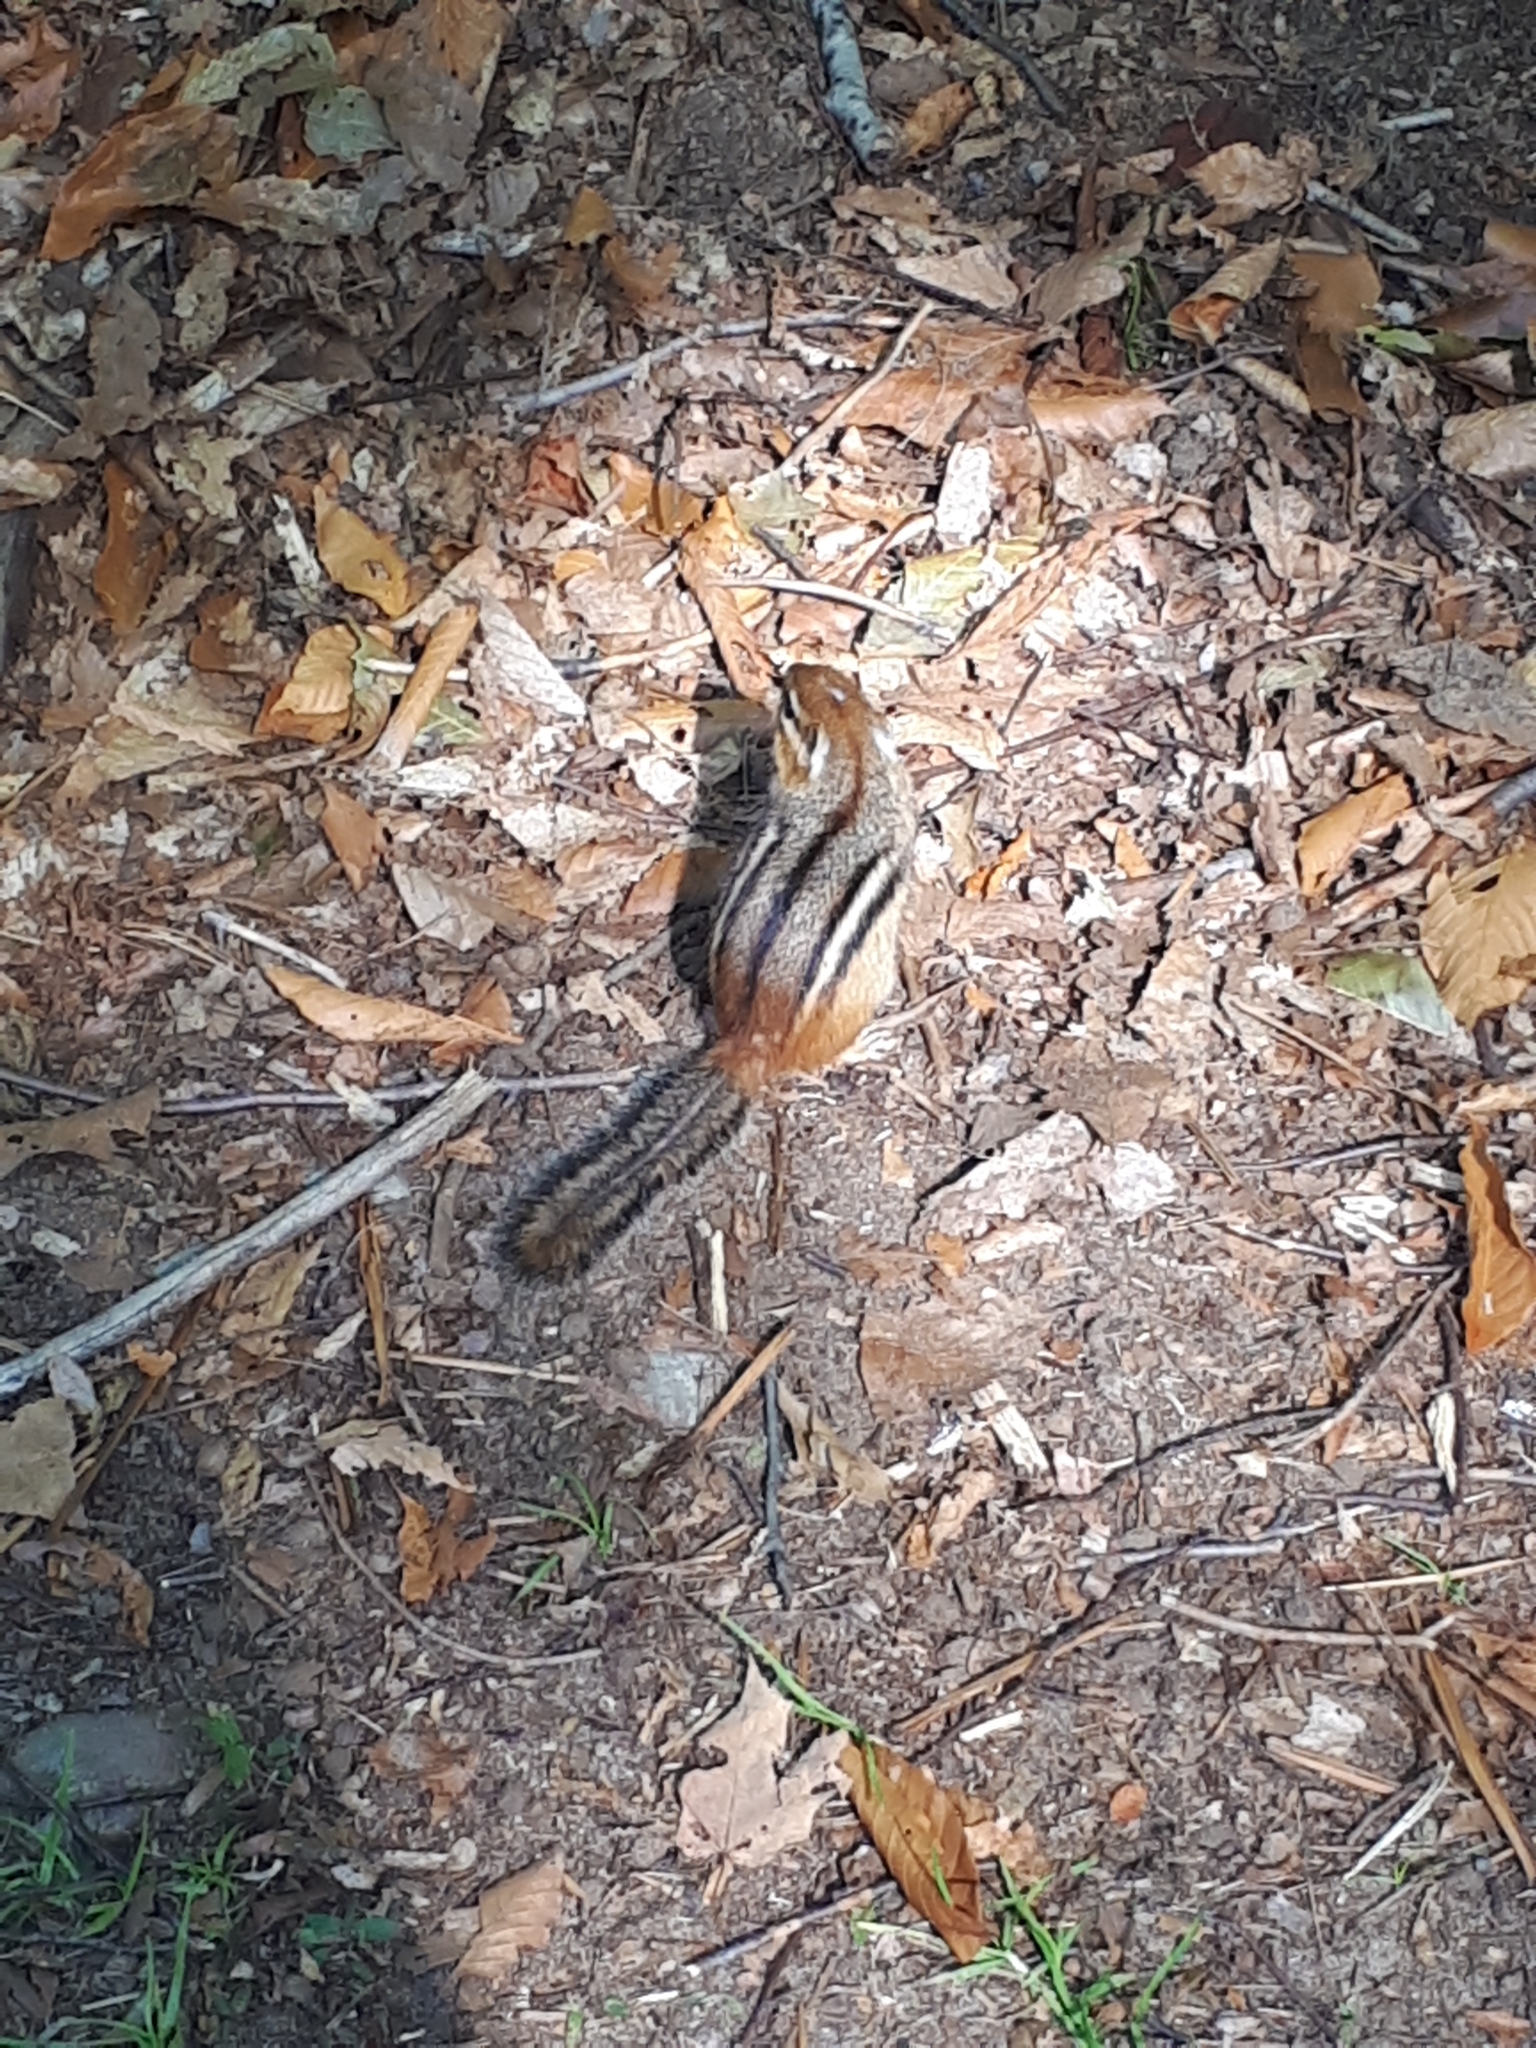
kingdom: Animalia
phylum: Chordata
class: Mammalia
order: Rodentia
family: Sciuridae
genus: Tamias
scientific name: Tamias striatus
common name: Eastern chipmunk
